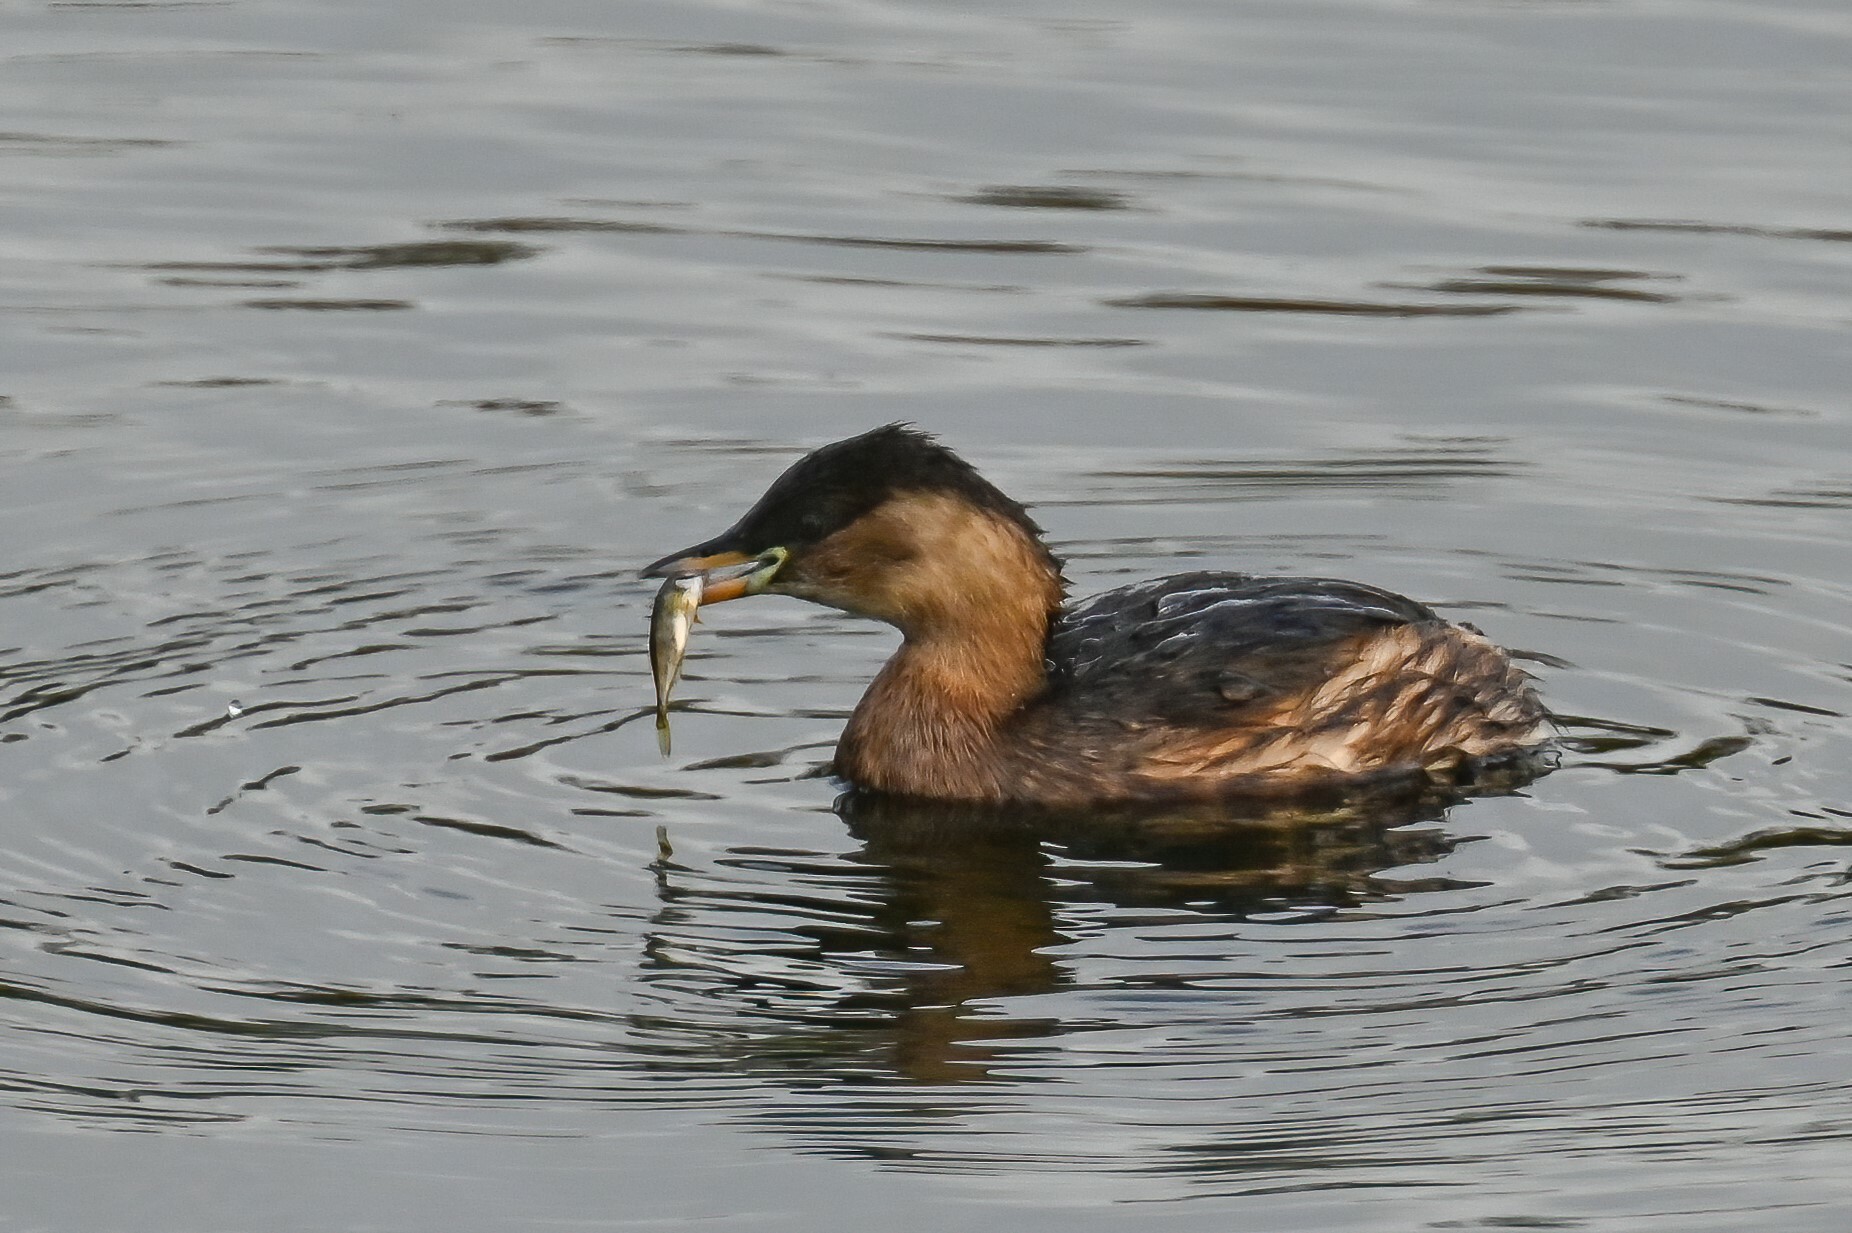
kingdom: Animalia
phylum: Chordata
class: Aves
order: Podicipediformes
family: Podicipedidae
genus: Tachybaptus
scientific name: Tachybaptus ruficollis
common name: Little grebe
